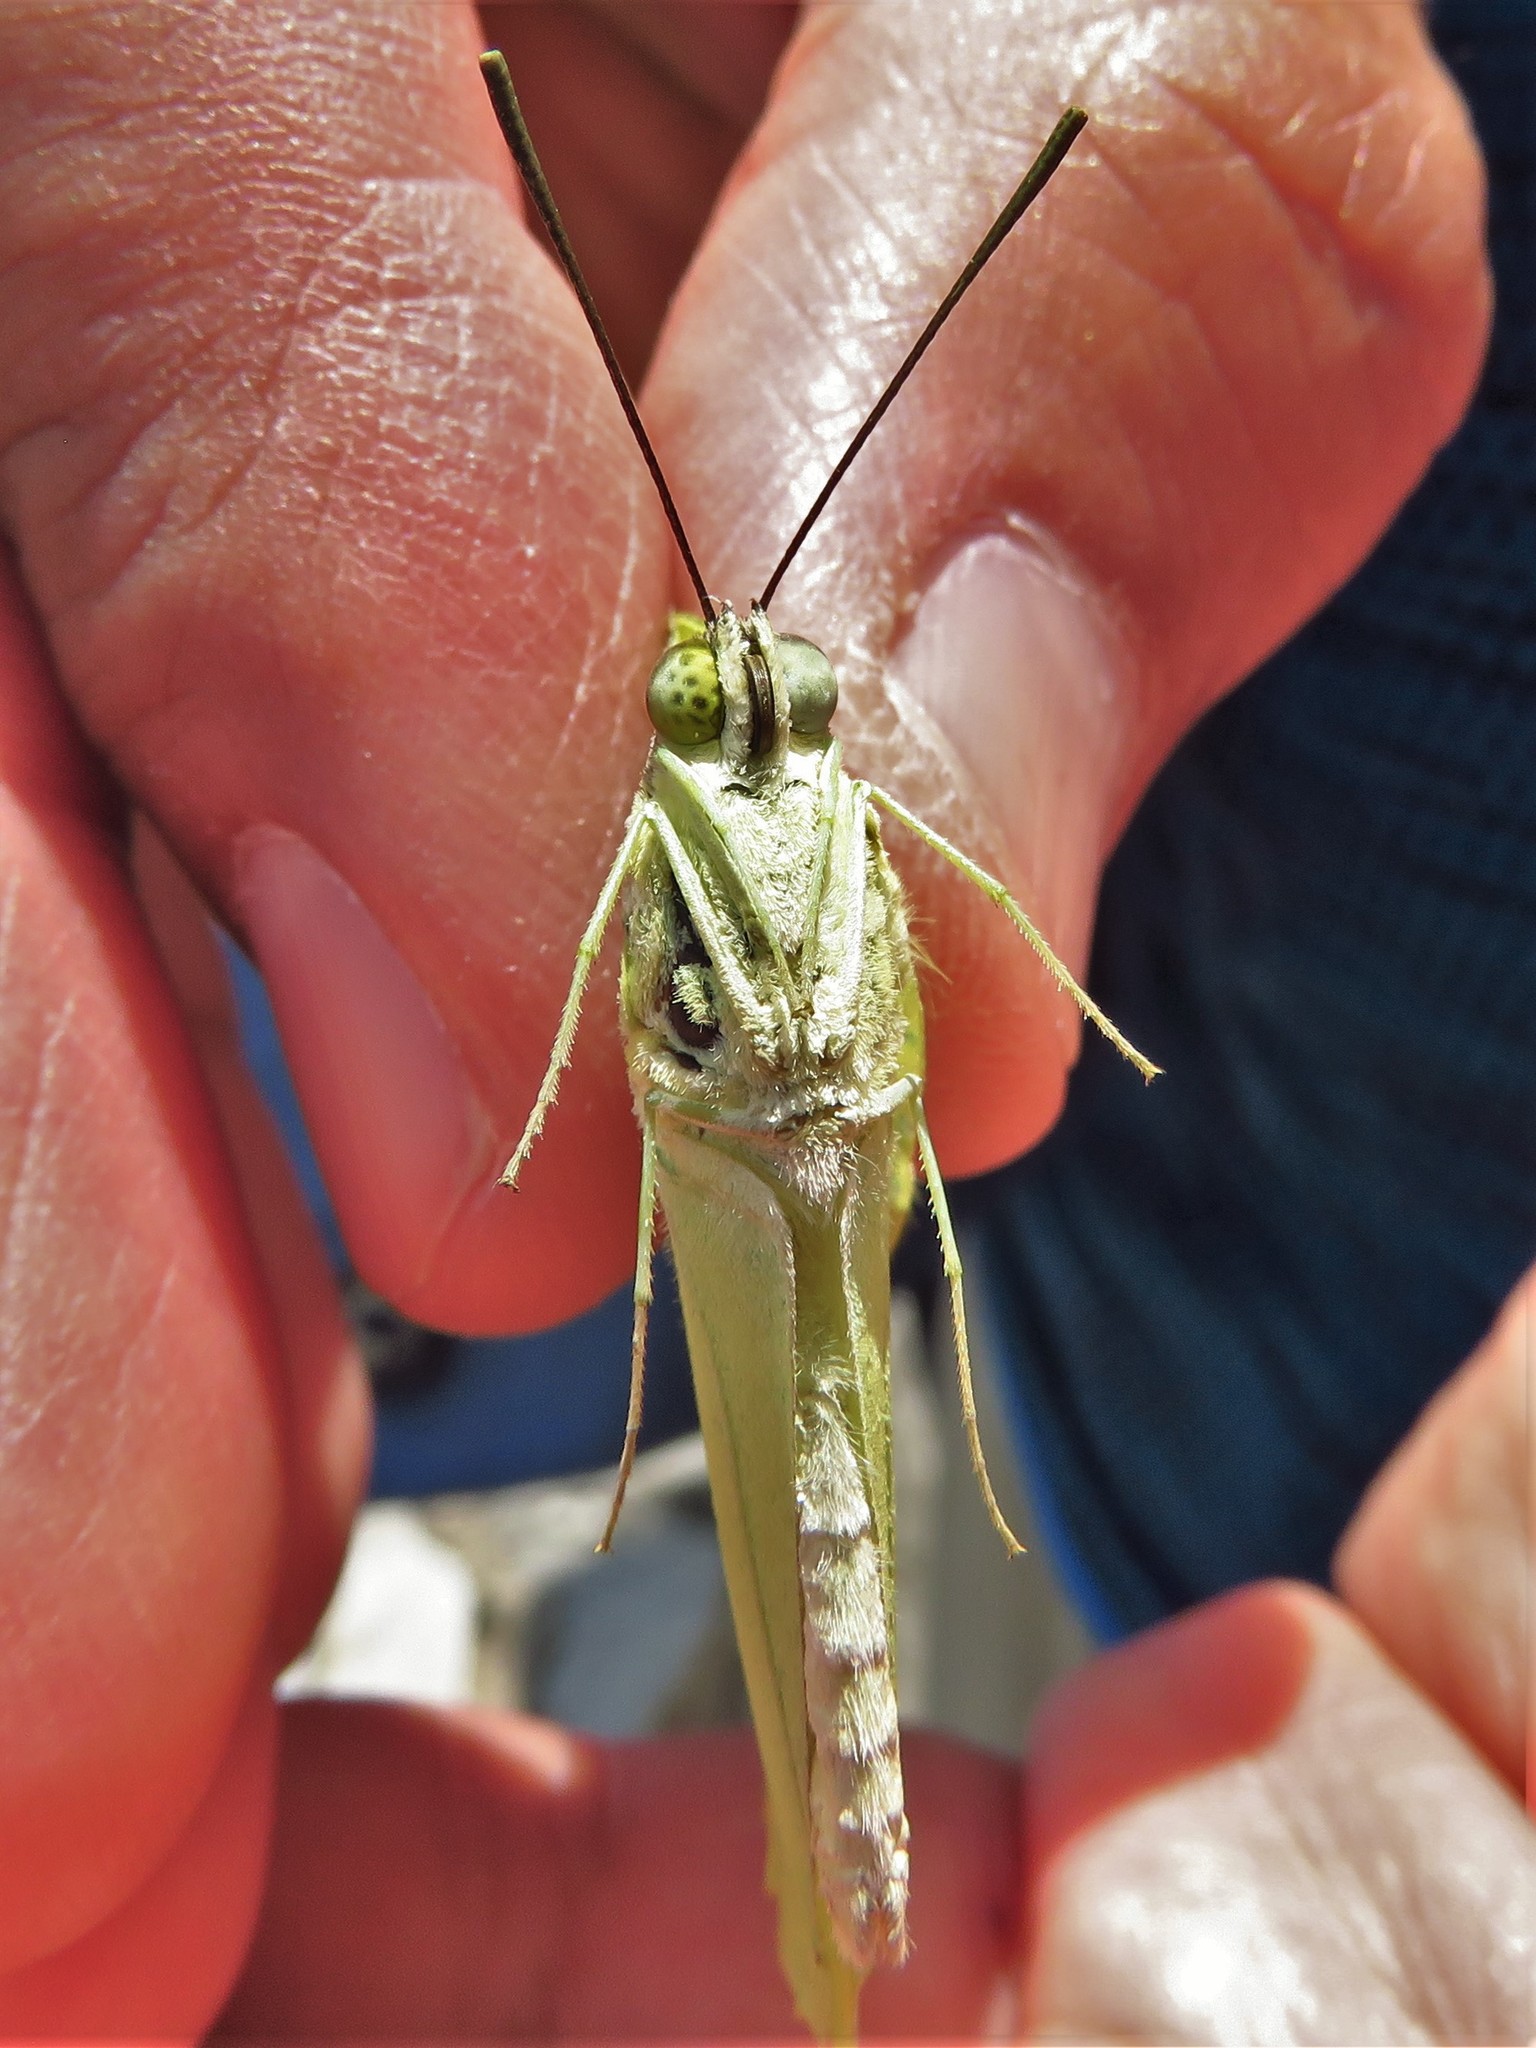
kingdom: Animalia
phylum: Arthropoda
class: Insecta
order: Lepidoptera
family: Pieridae
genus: Anteos
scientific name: Anteos maerula
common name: Angled sulphur
